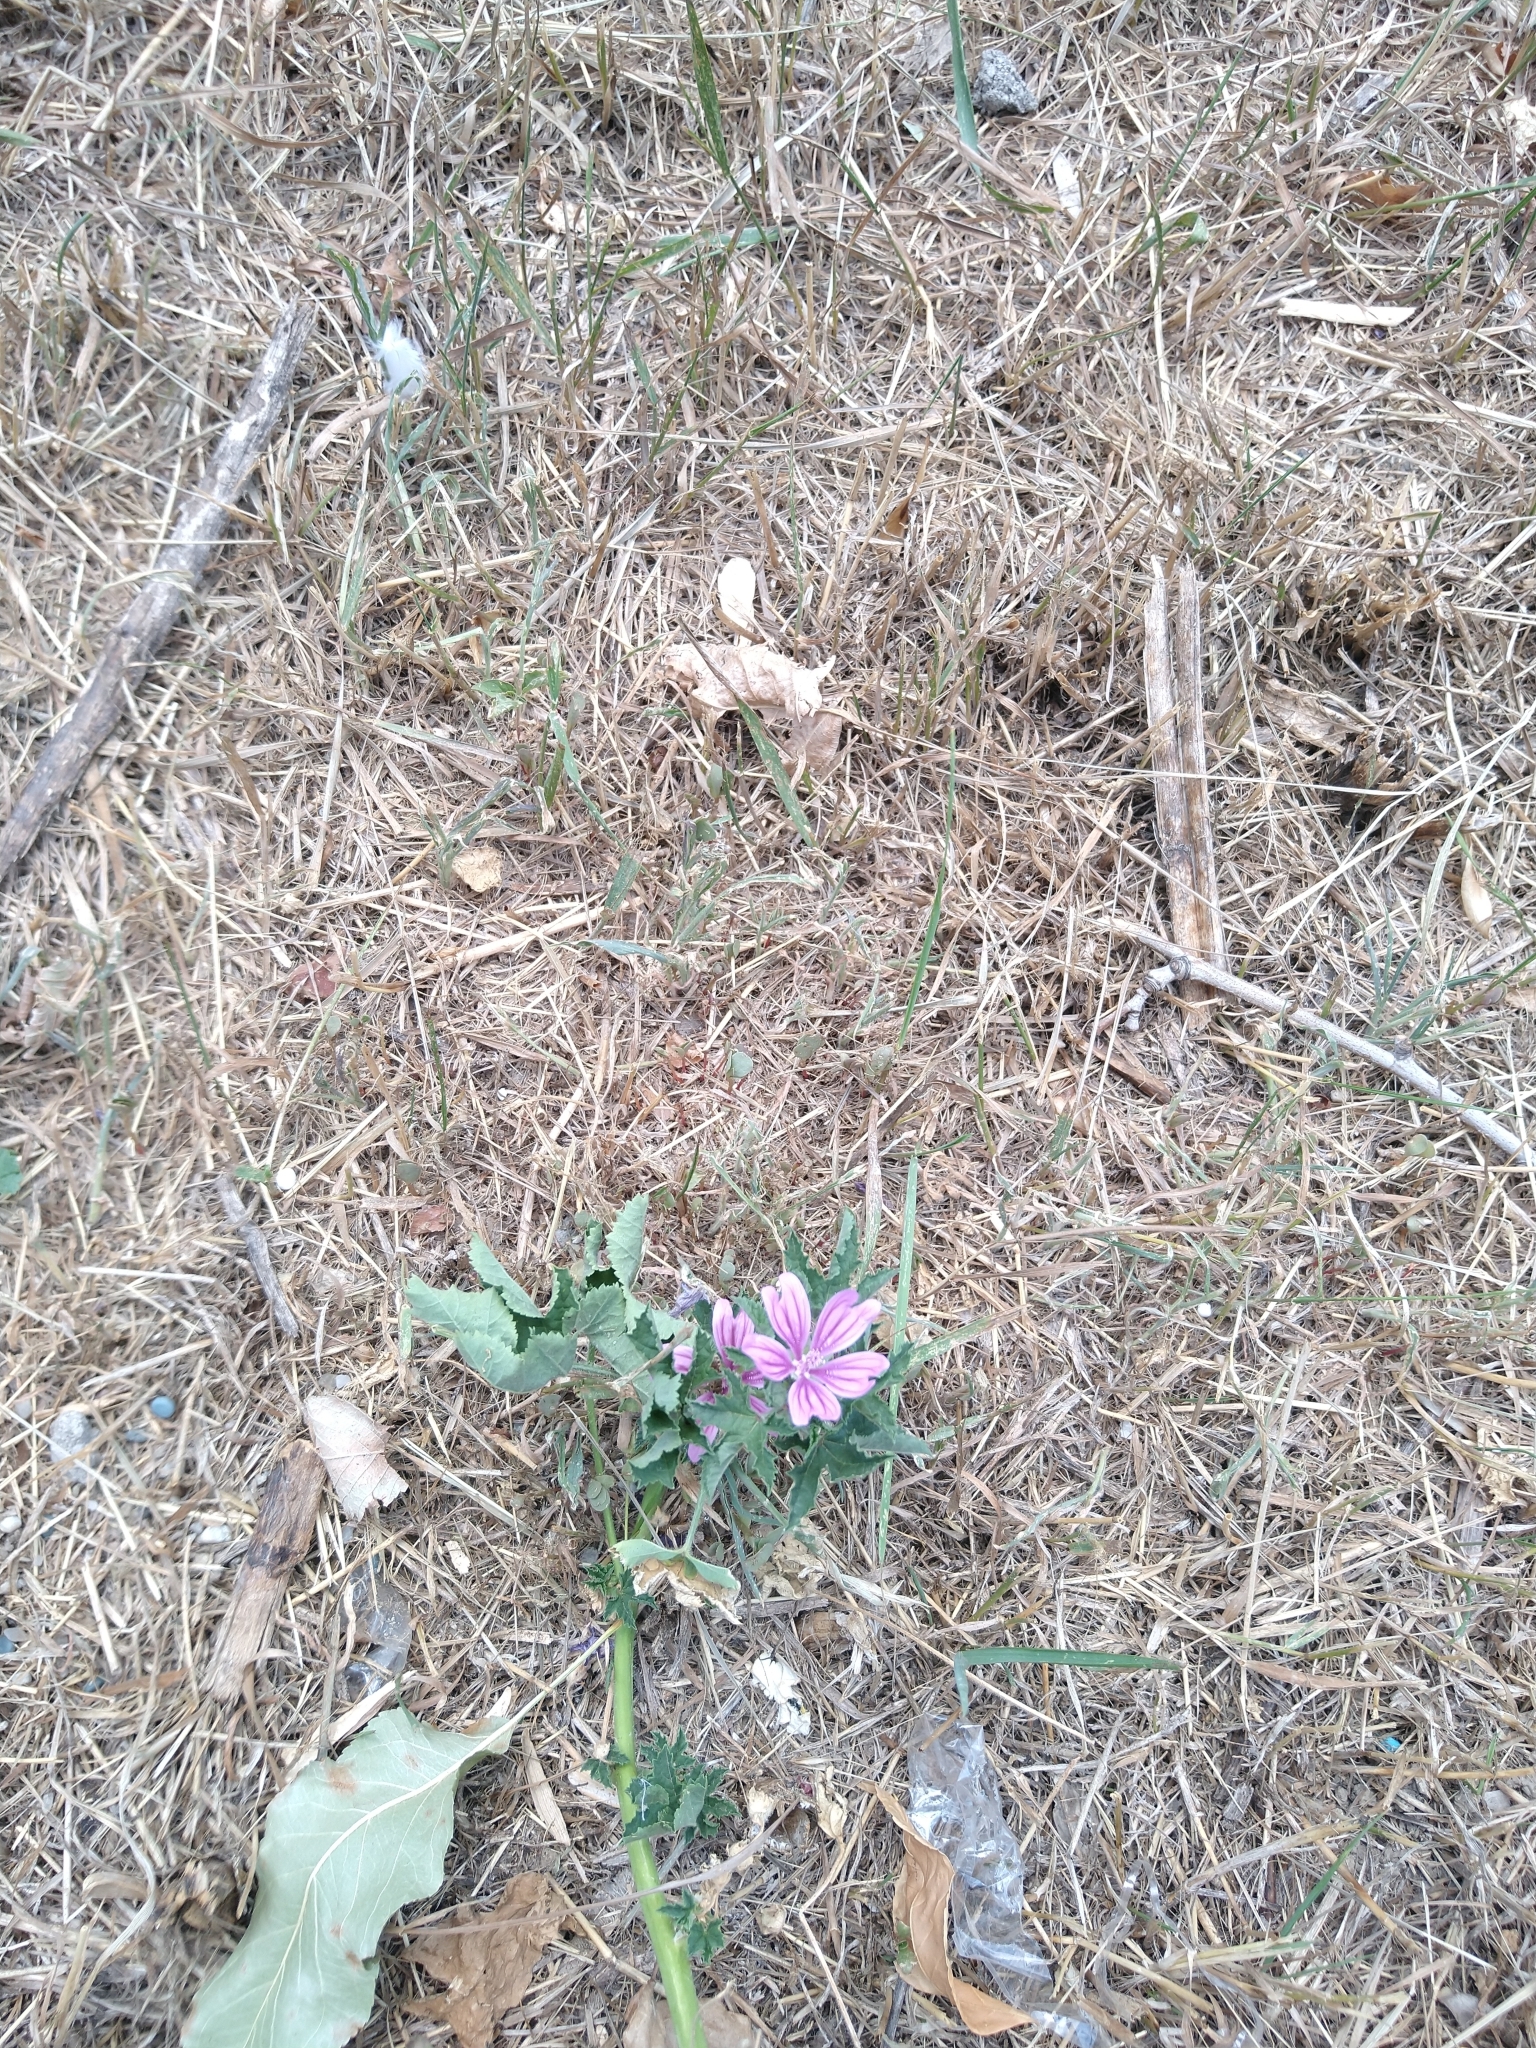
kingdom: Plantae
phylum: Tracheophyta
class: Magnoliopsida
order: Malvales
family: Malvaceae
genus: Malva
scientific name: Malva sylvestris
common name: Common mallow
